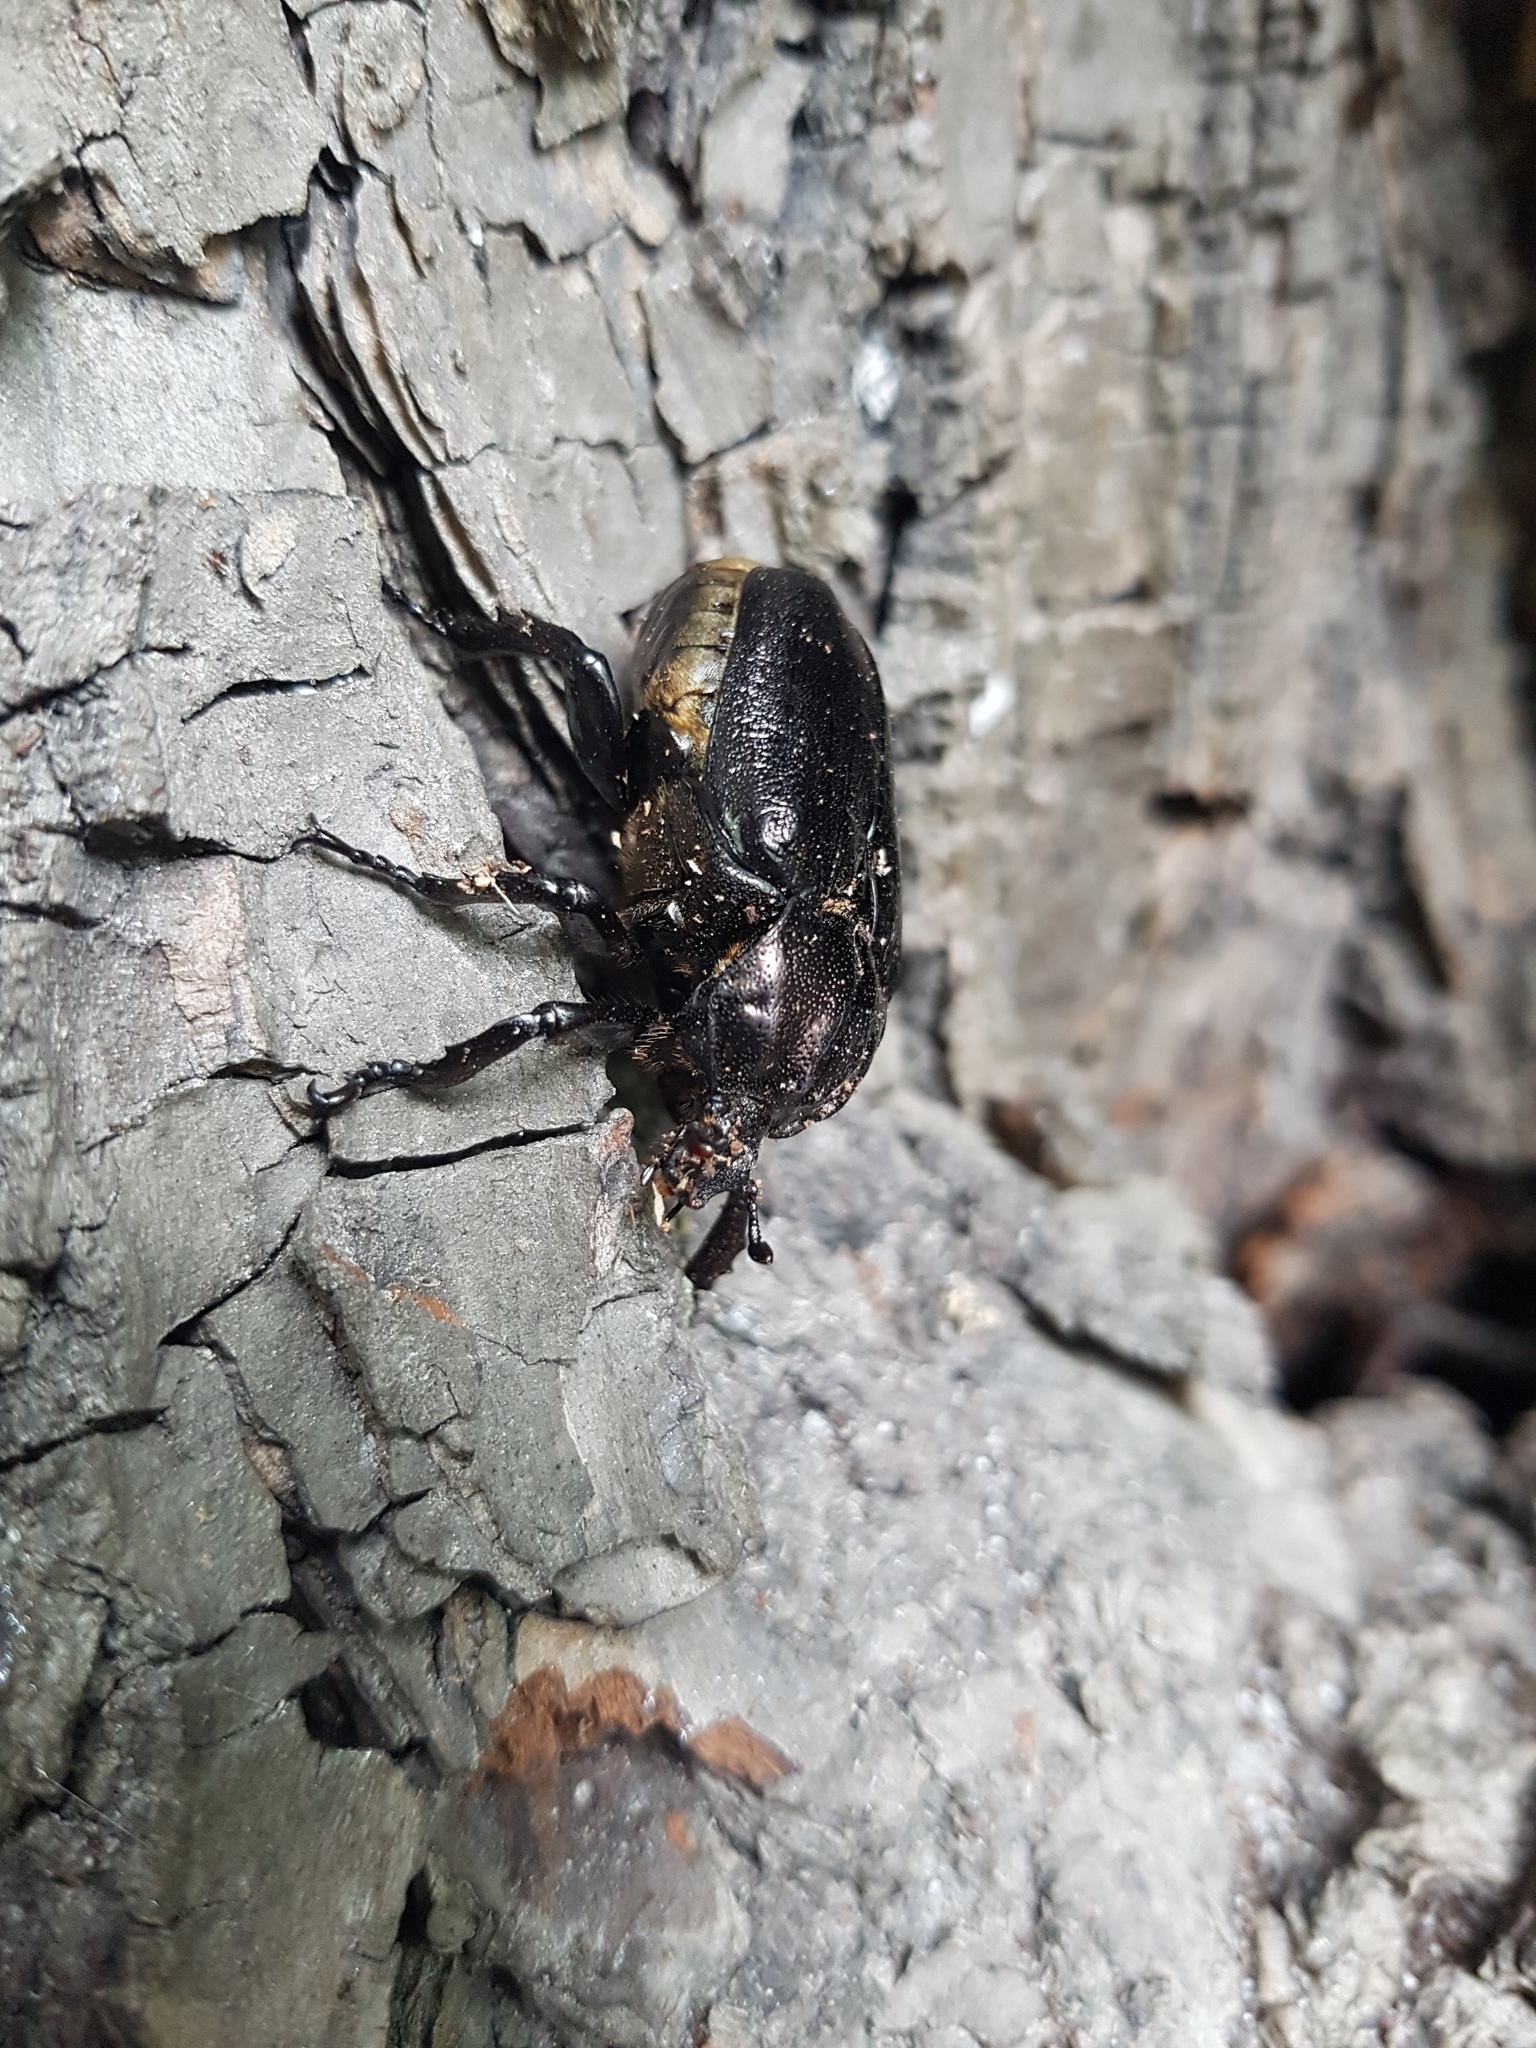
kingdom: Animalia
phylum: Arthropoda
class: Insecta
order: Coleoptera
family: Scarabaeidae
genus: Osmoderma
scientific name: Osmoderma eremita
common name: Hermit beetle
